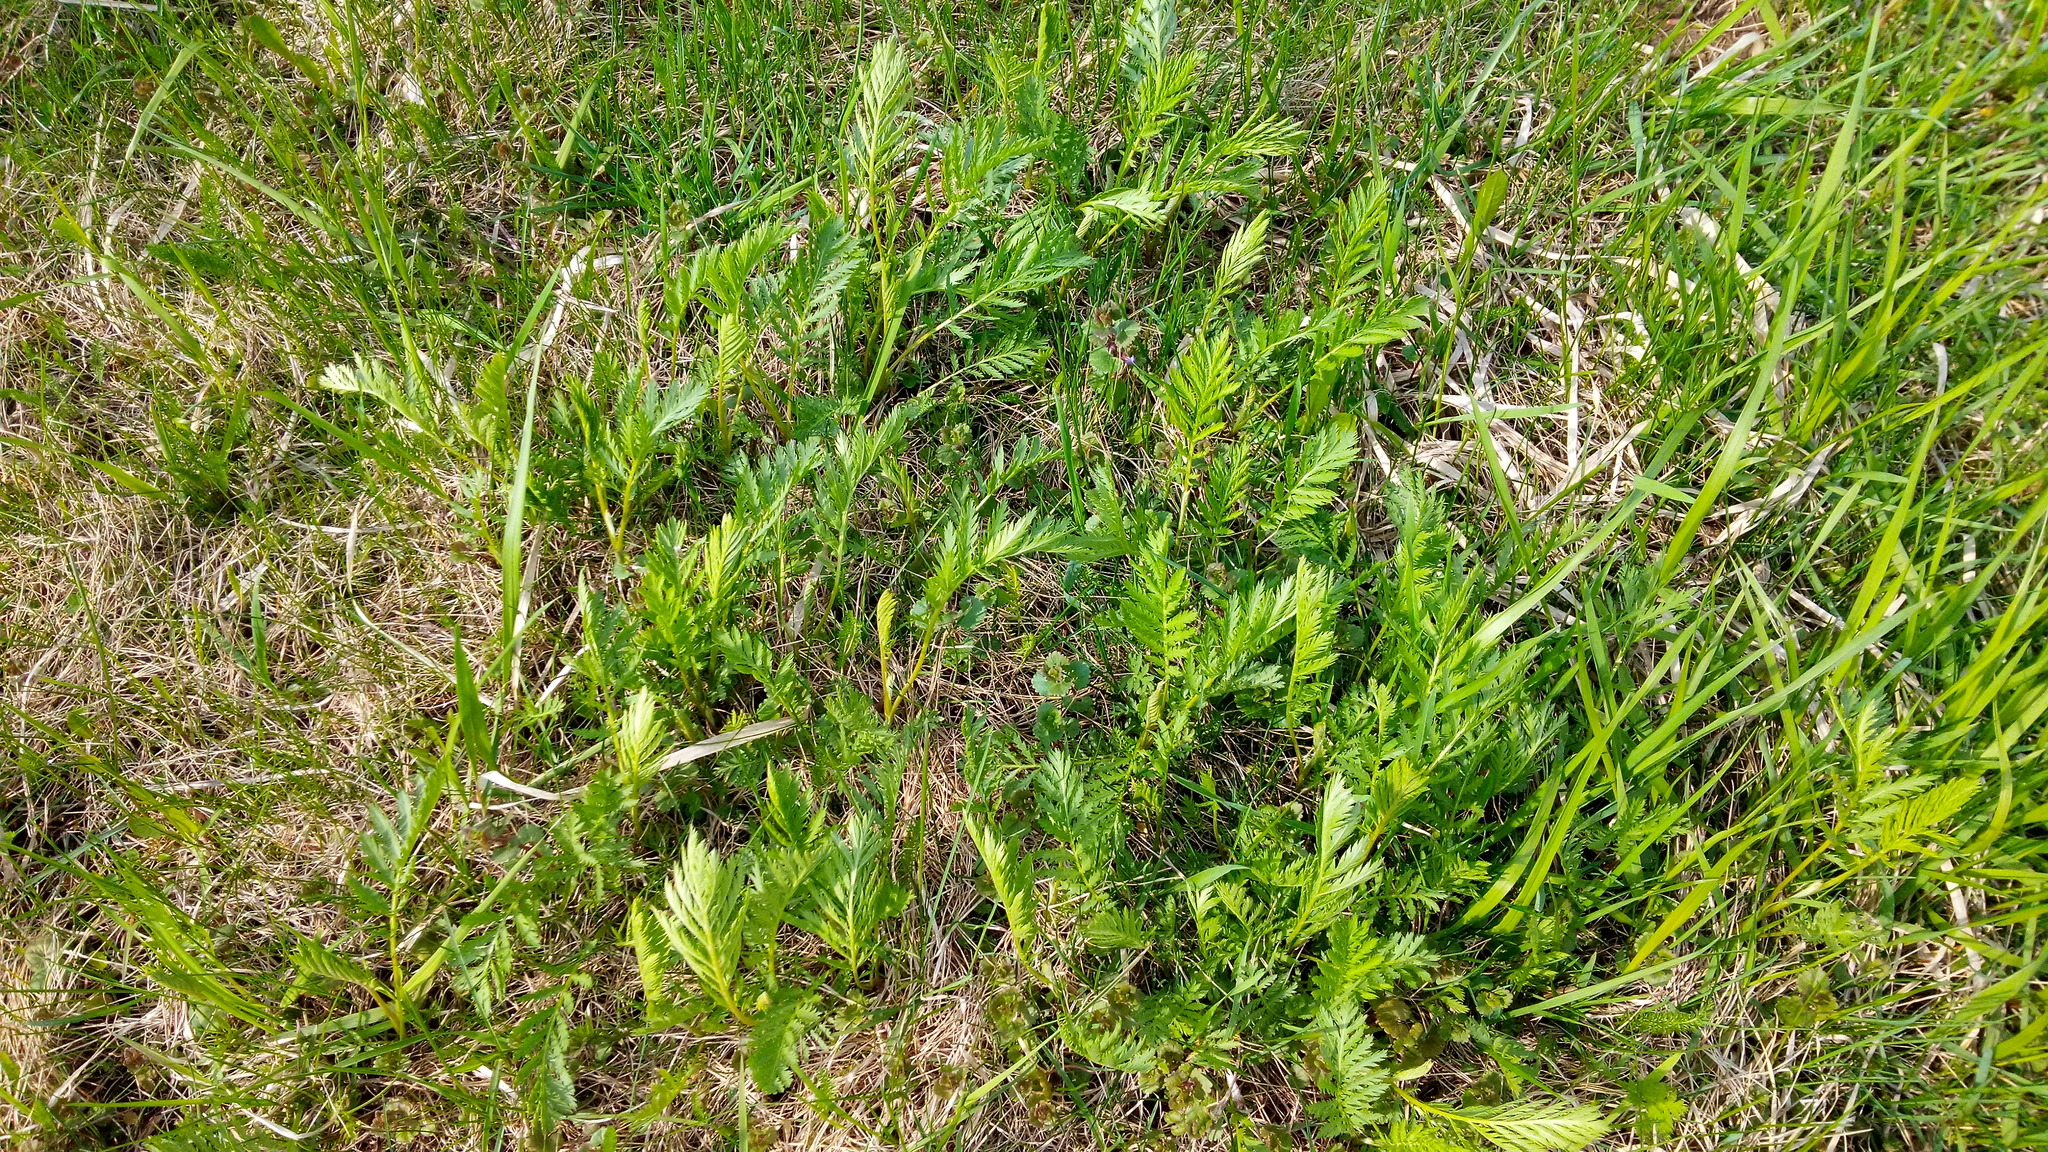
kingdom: Plantae
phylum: Tracheophyta
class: Magnoliopsida
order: Asterales
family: Asteraceae
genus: Tanacetum
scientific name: Tanacetum vulgare
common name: Common tansy
